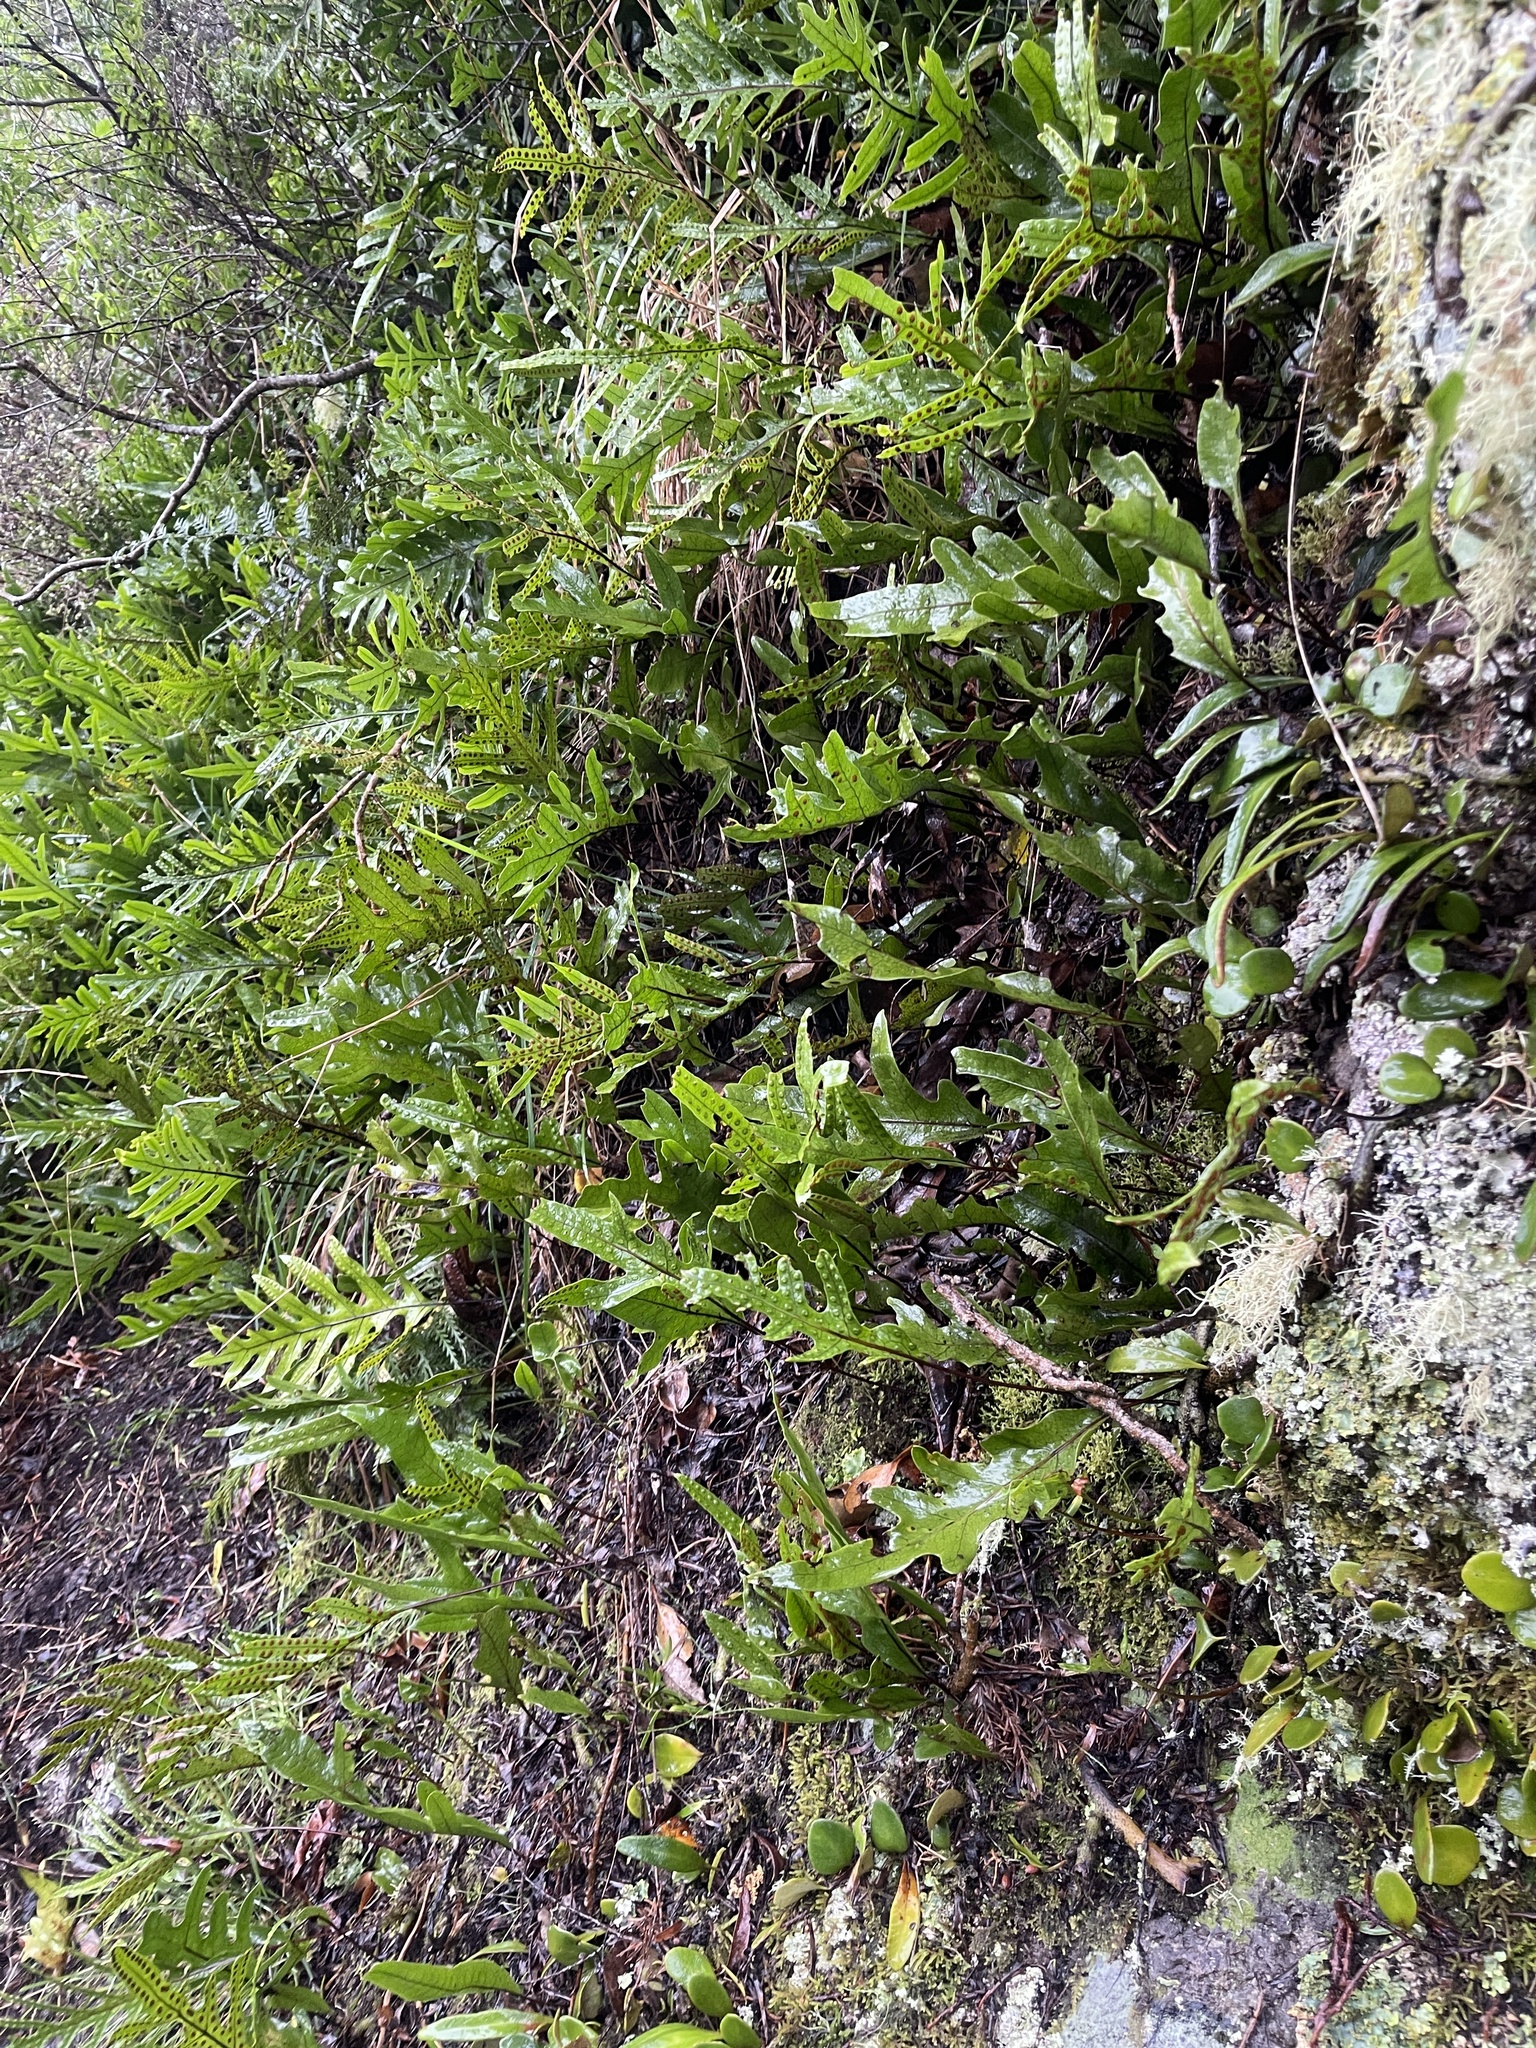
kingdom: Plantae
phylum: Tracheophyta
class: Polypodiopsida
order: Polypodiales
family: Polypodiaceae
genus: Lecanopteris
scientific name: Lecanopteris pustulata
